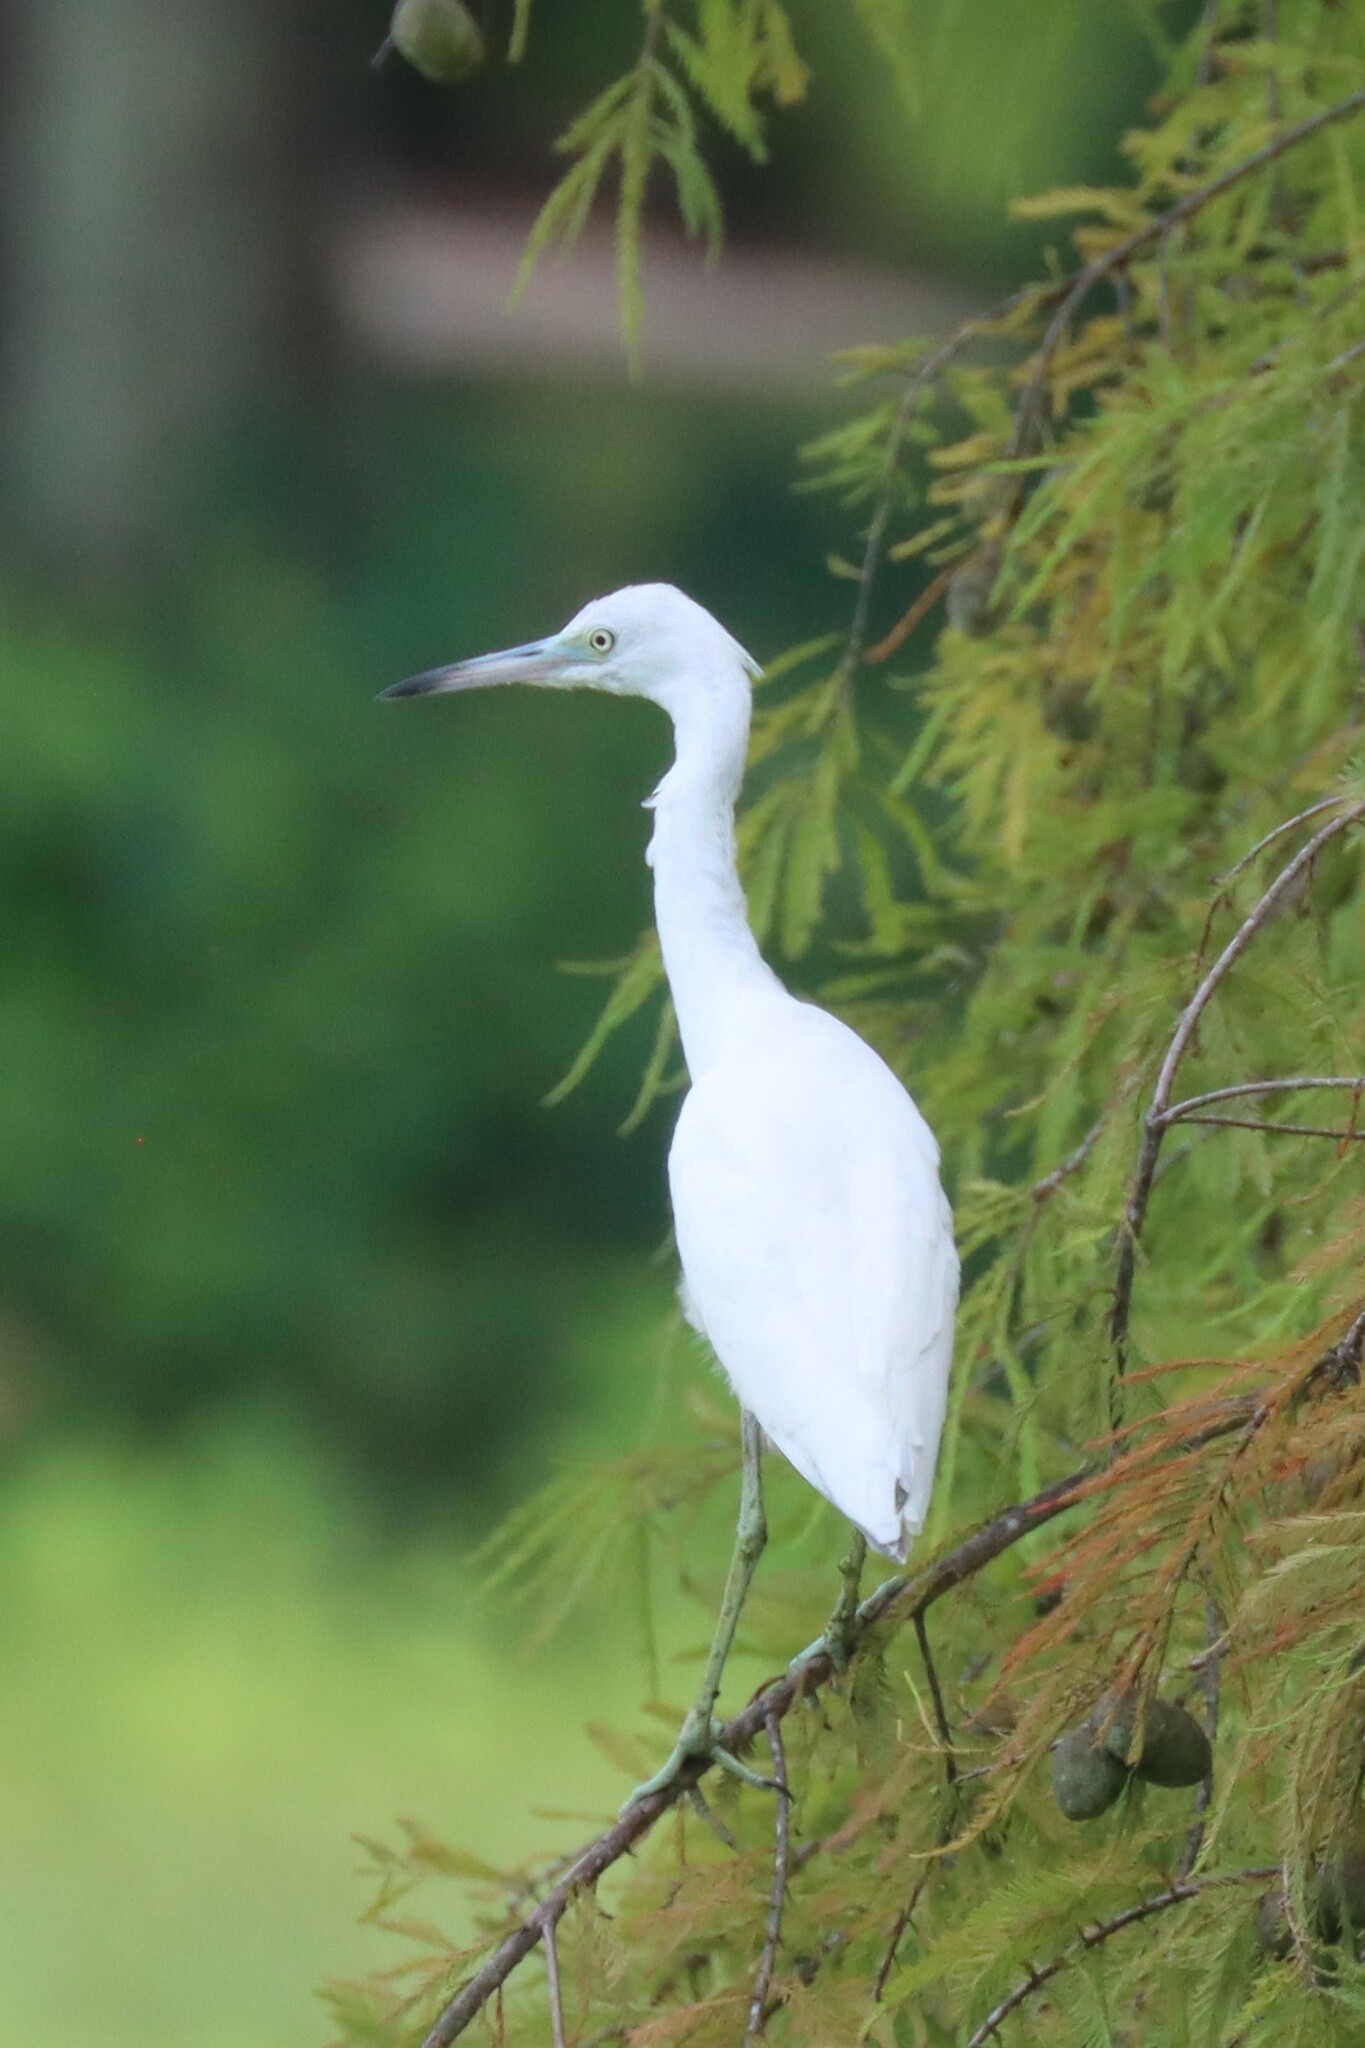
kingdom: Animalia
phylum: Chordata
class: Aves
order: Pelecaniformes
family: Ardeidae
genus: Egretta
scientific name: Egretta caerulea
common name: Little blue heron
